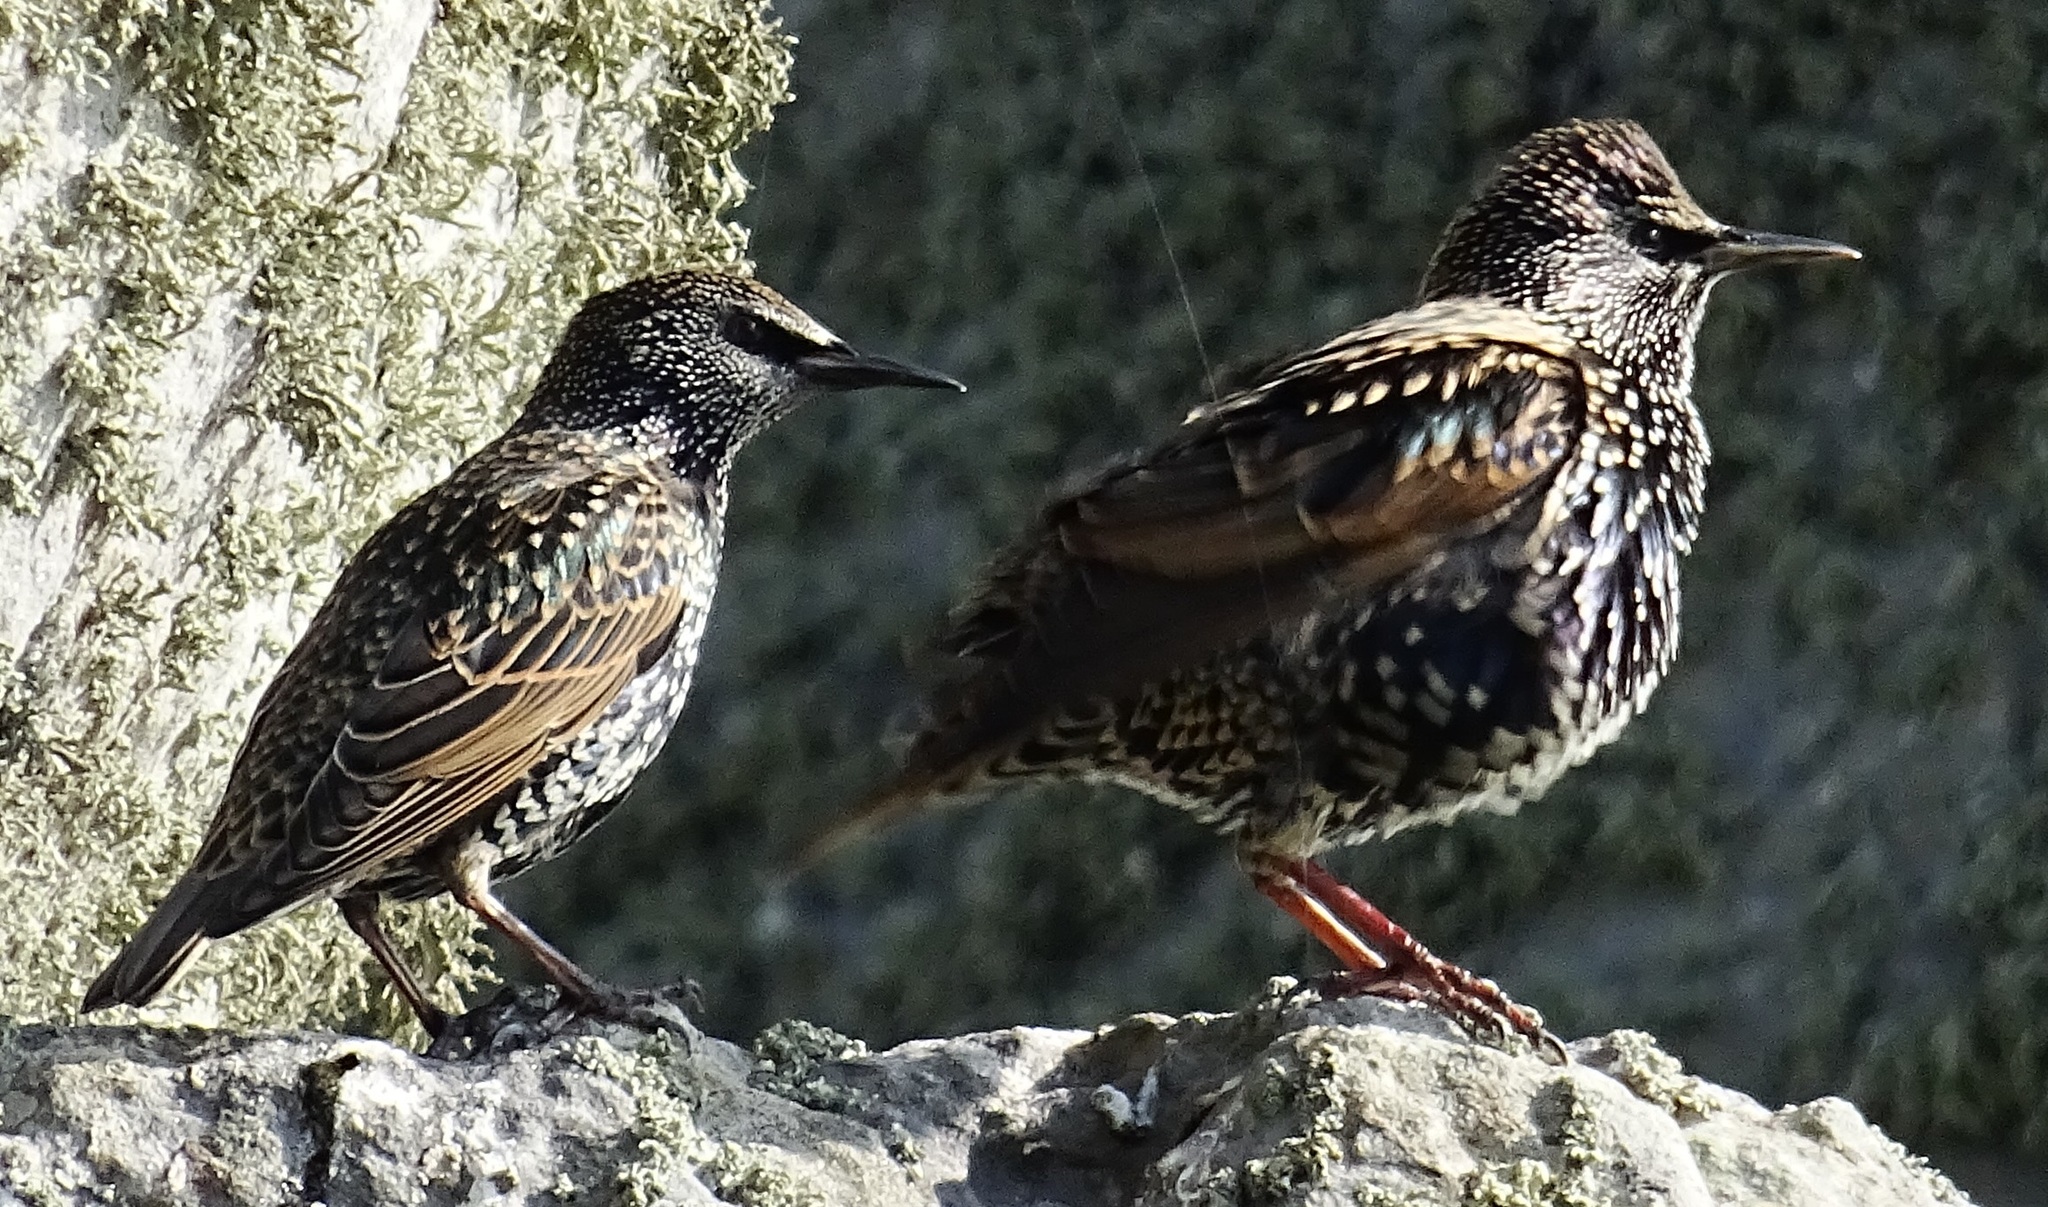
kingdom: Animalia
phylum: Chordata
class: Aves
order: Passeriformes
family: Sturnidae
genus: Sturnus
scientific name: Sturnus vulgaris
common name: Common starling
